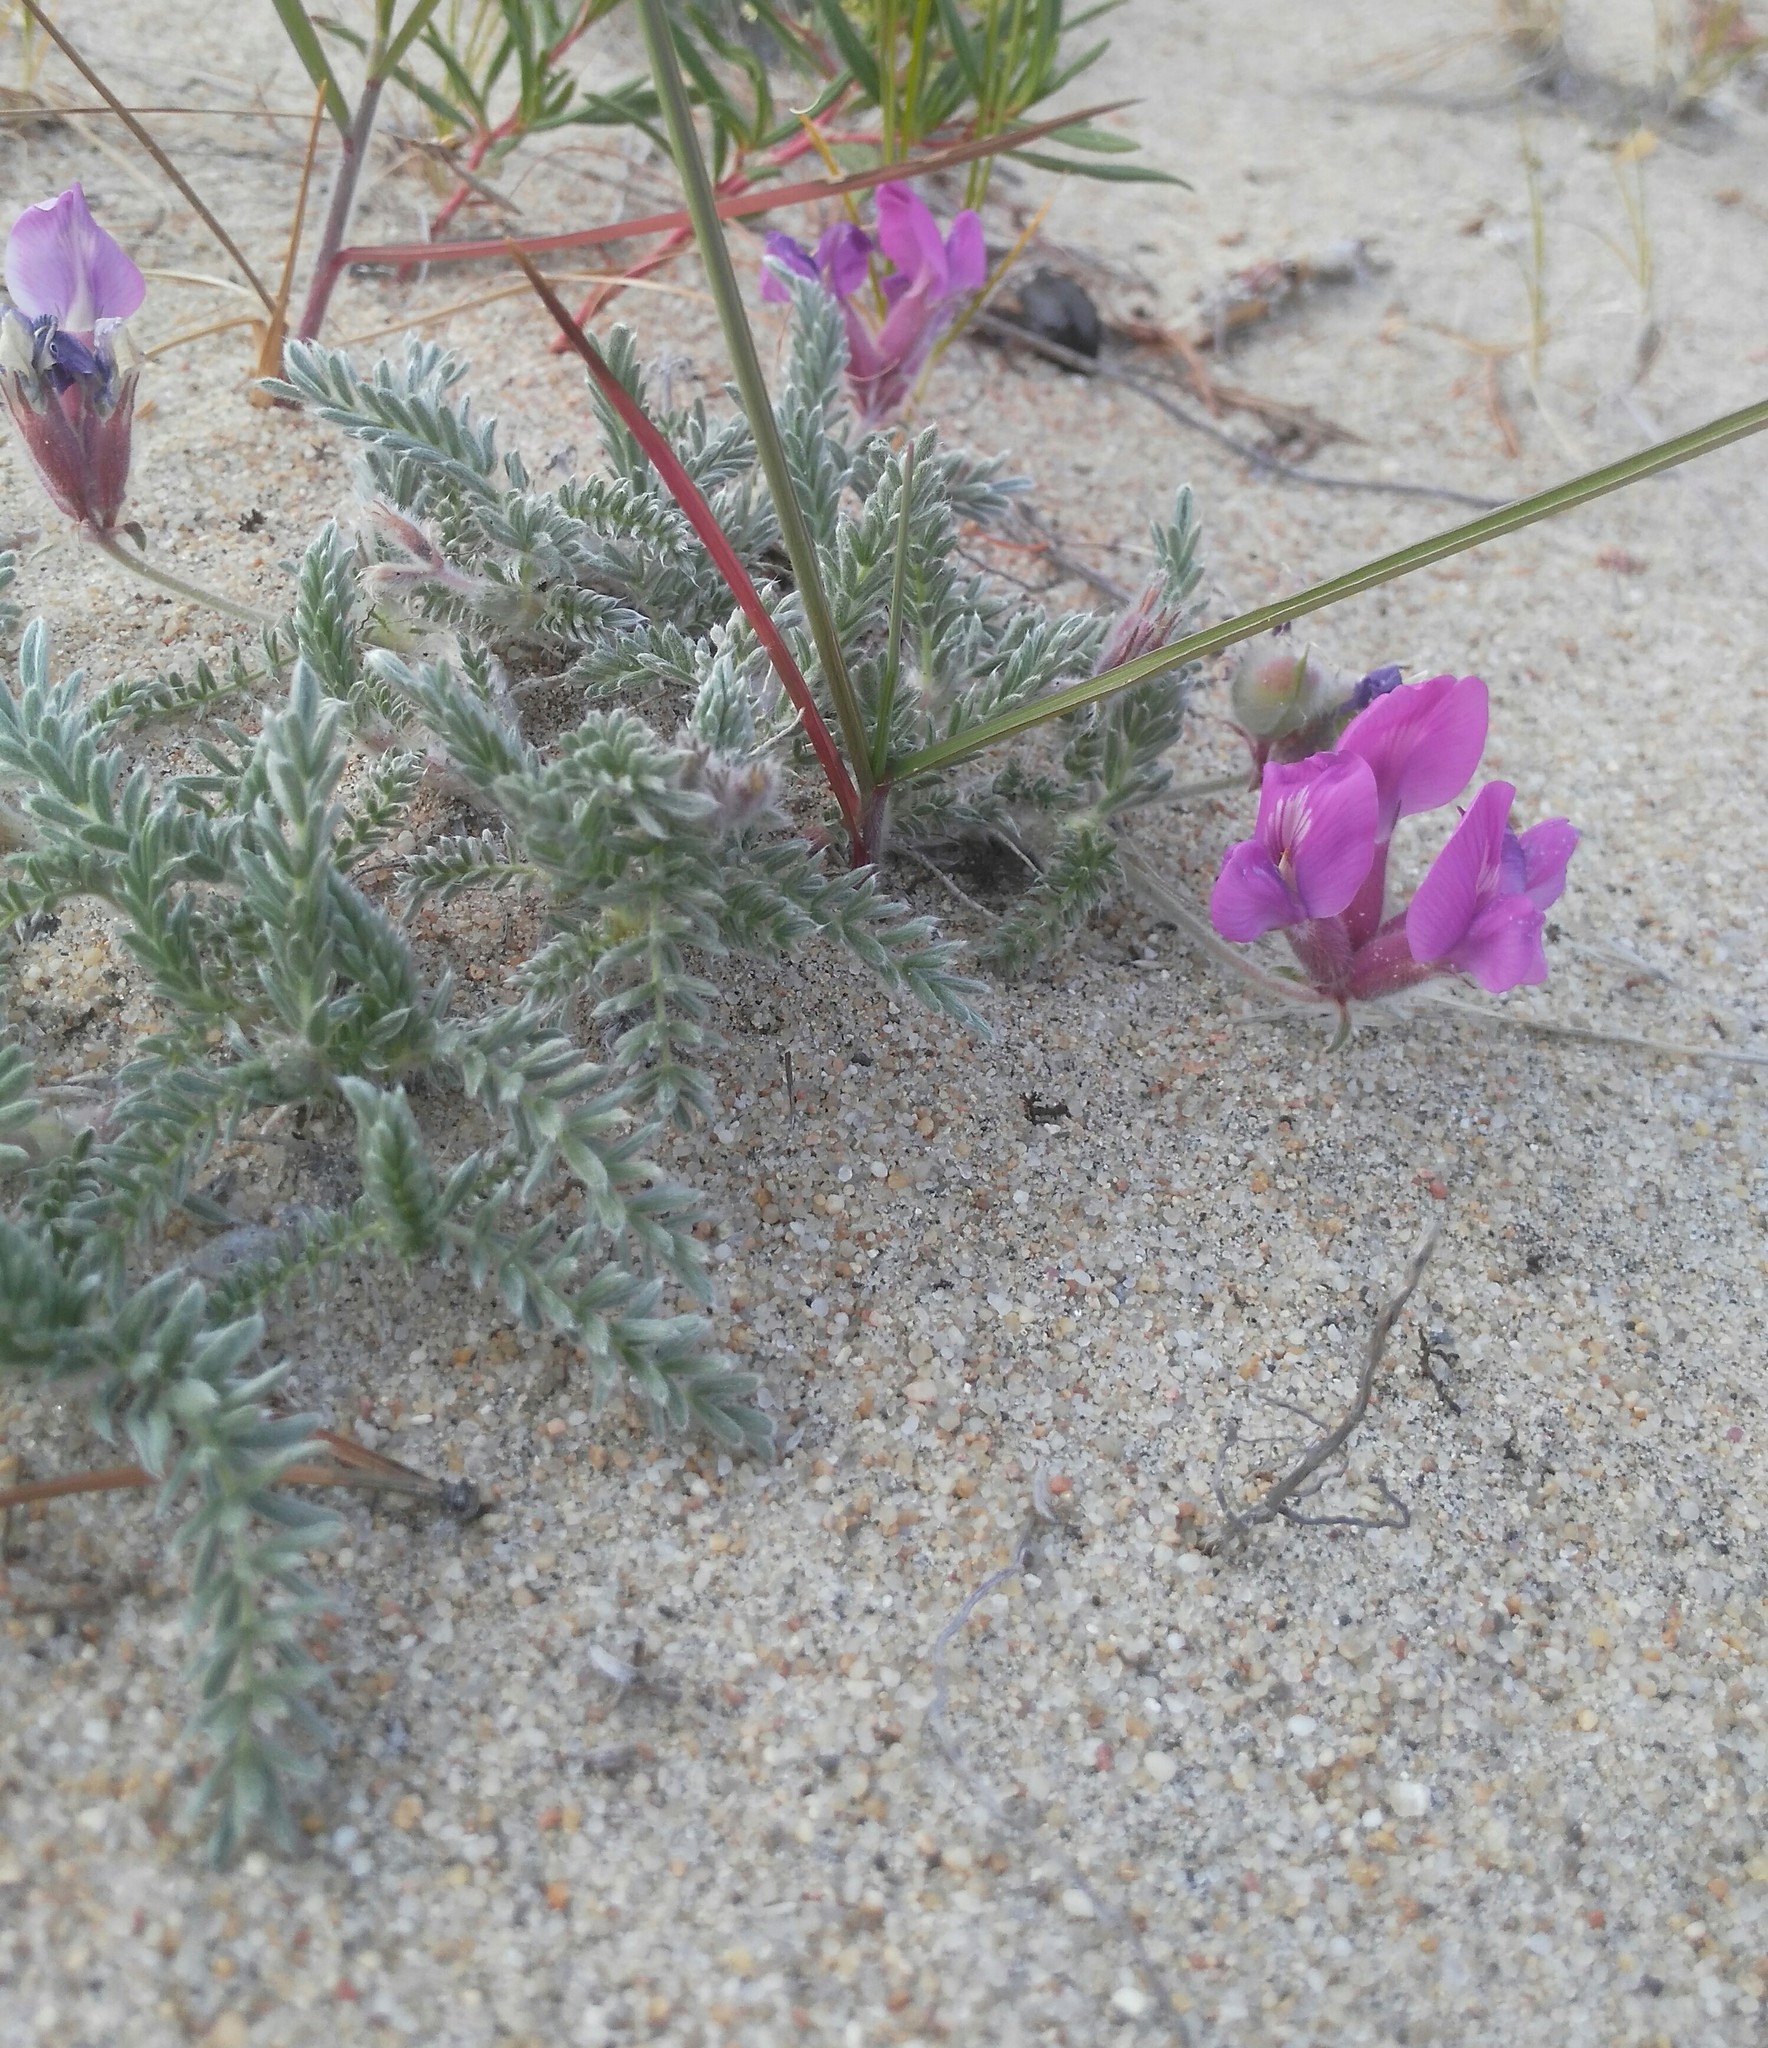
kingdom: Plantae
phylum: Tracheophyta
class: Magnoliopsida
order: Fabales
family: Fabaceae
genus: Oxytropis
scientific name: Oxytropis lanata
